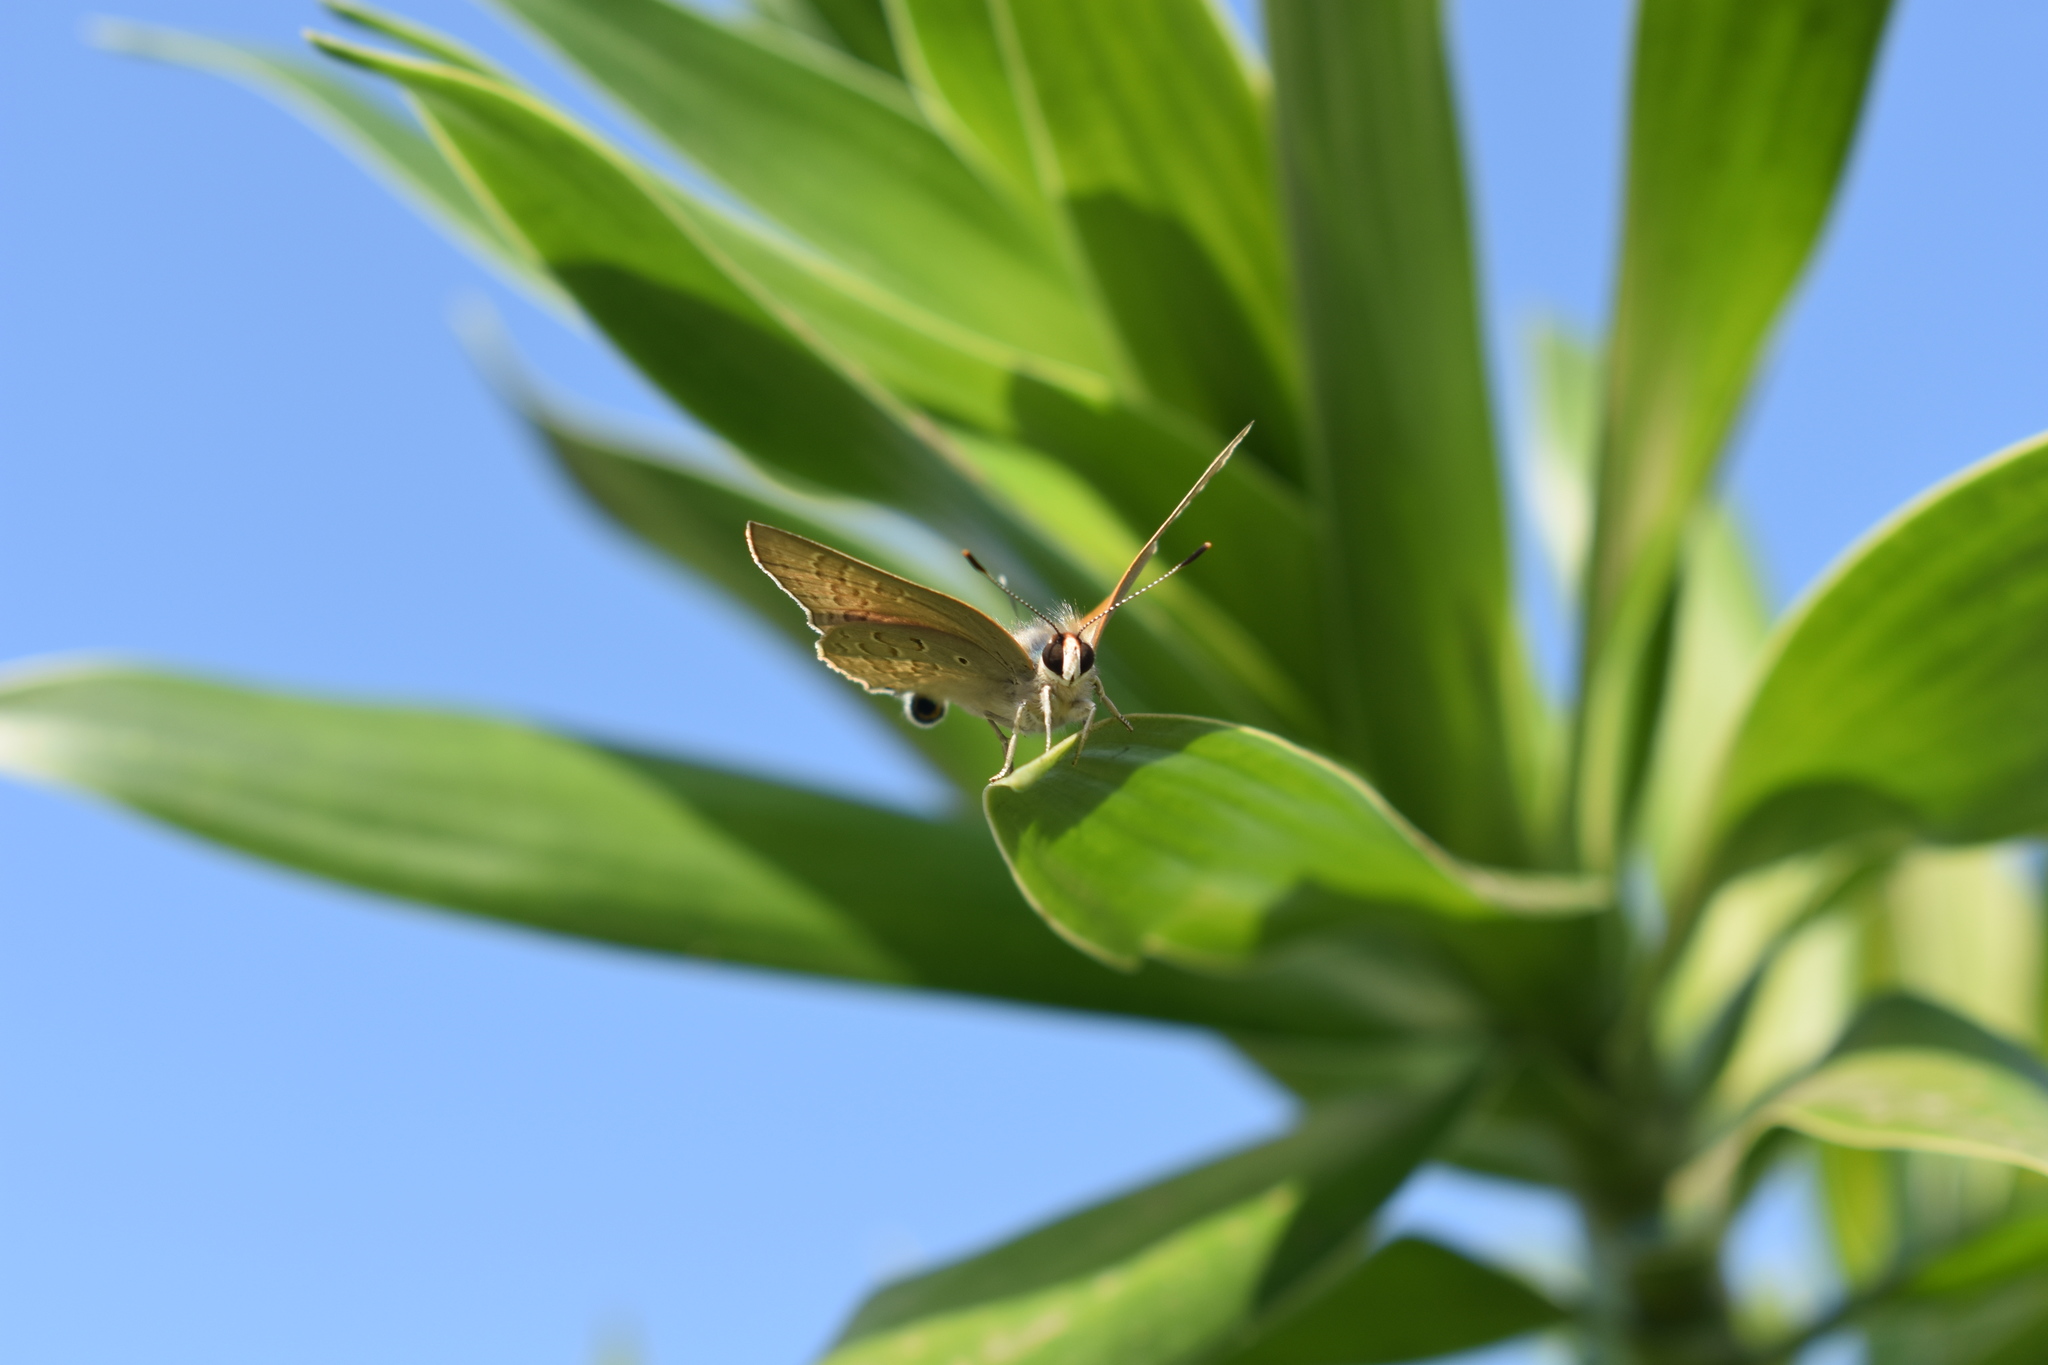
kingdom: Animalia
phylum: Arthropoda
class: Insecta
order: Lepidoptera
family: Lycaenidae
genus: Deudorix
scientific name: Deudorix antalus
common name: Brown playboy
